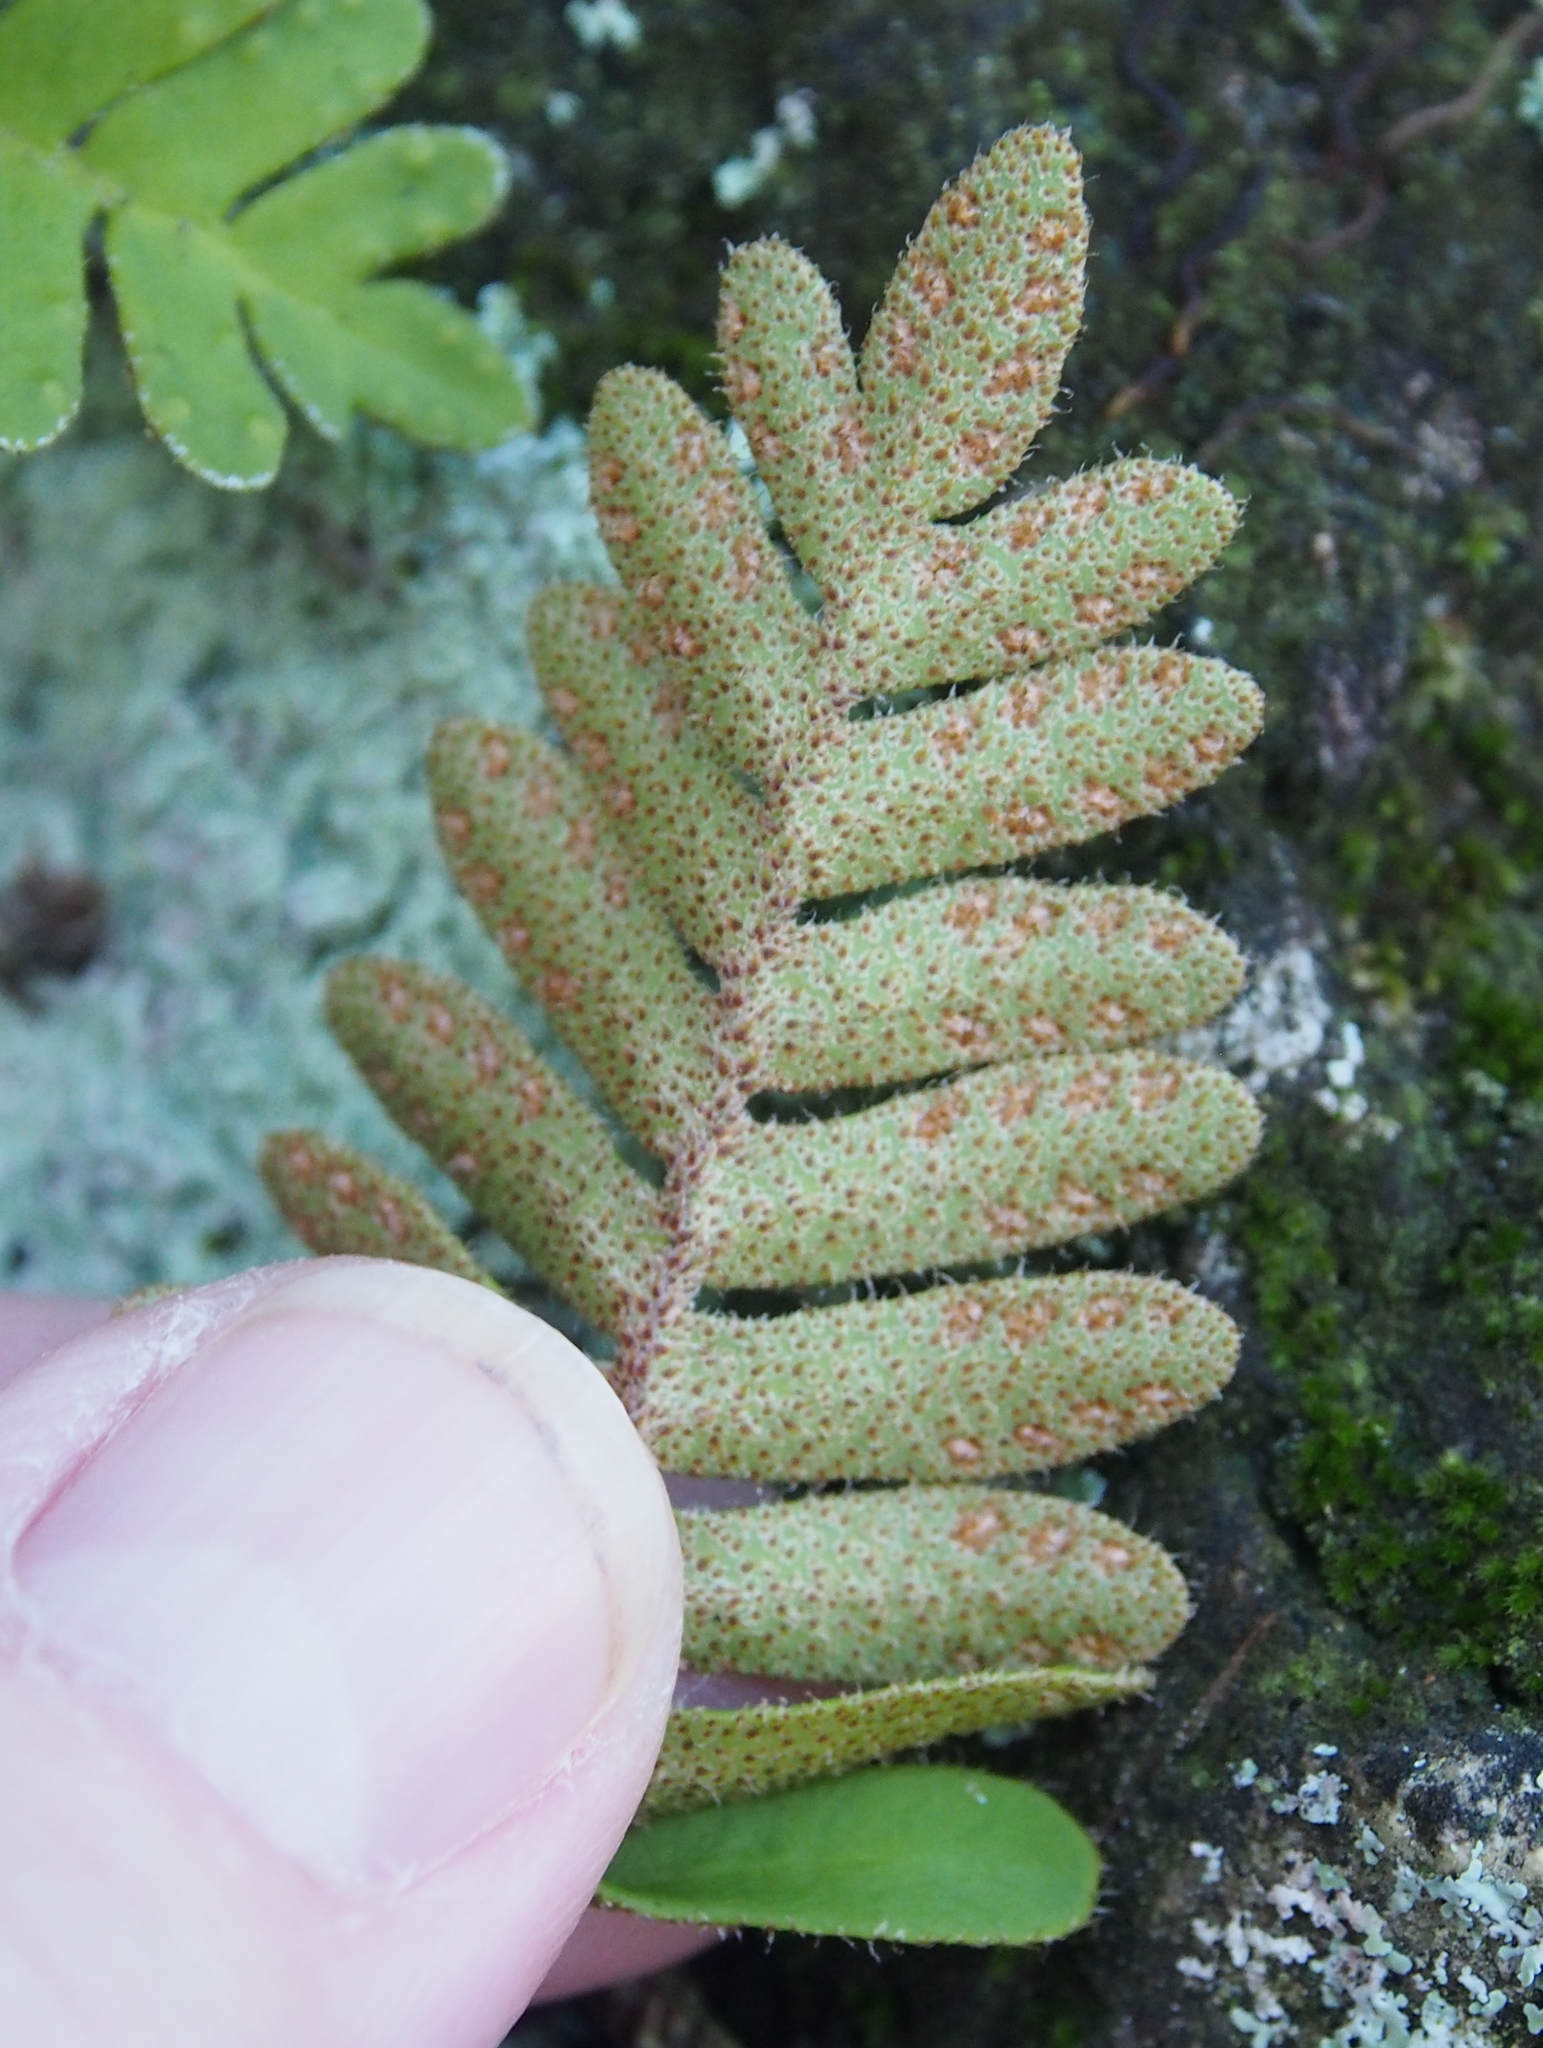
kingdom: Plantae
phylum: Tracheophyta
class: Polypodiopsida
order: Polypodiales
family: Polypodiaceae
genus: Pleopeltis
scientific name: Pleopeltis michauxiana
